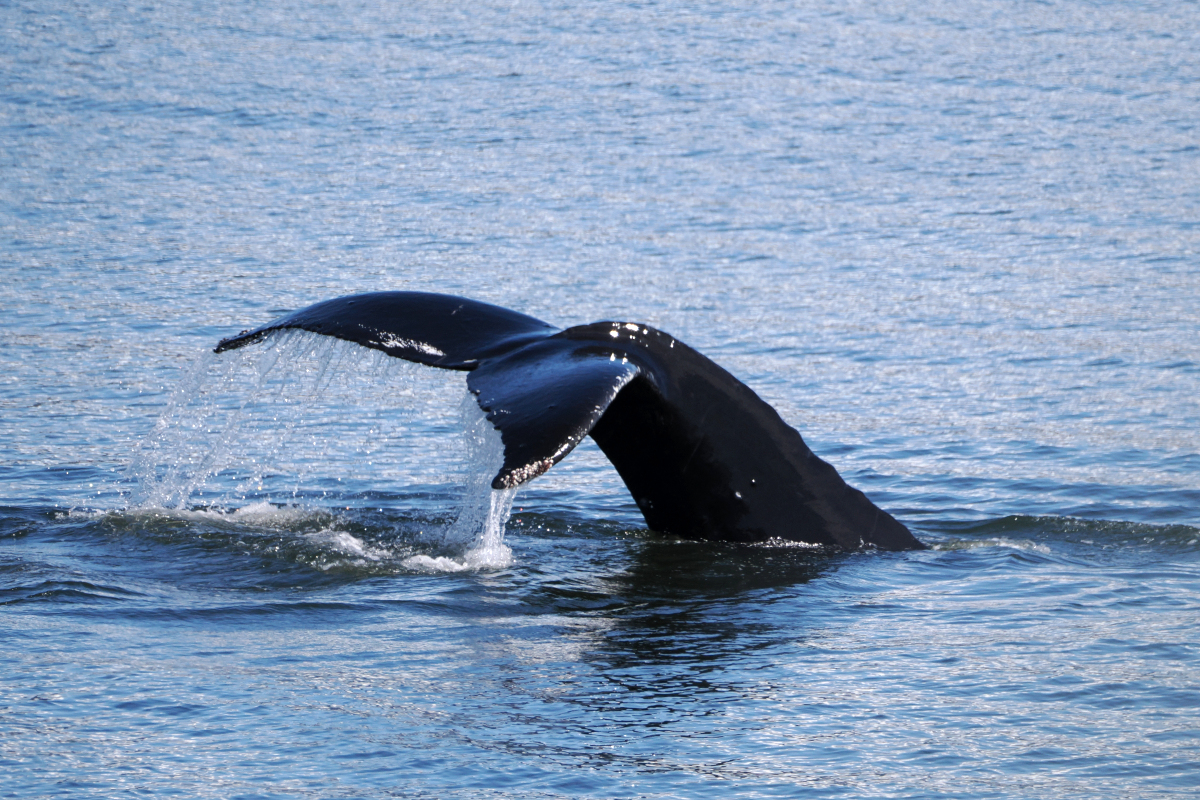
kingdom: Animalia
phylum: Chordata
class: Mammalia
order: Cetacea
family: Balaenopteridae
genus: Megaptera
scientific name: Megaptera novaeangliae
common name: Humpback whale
